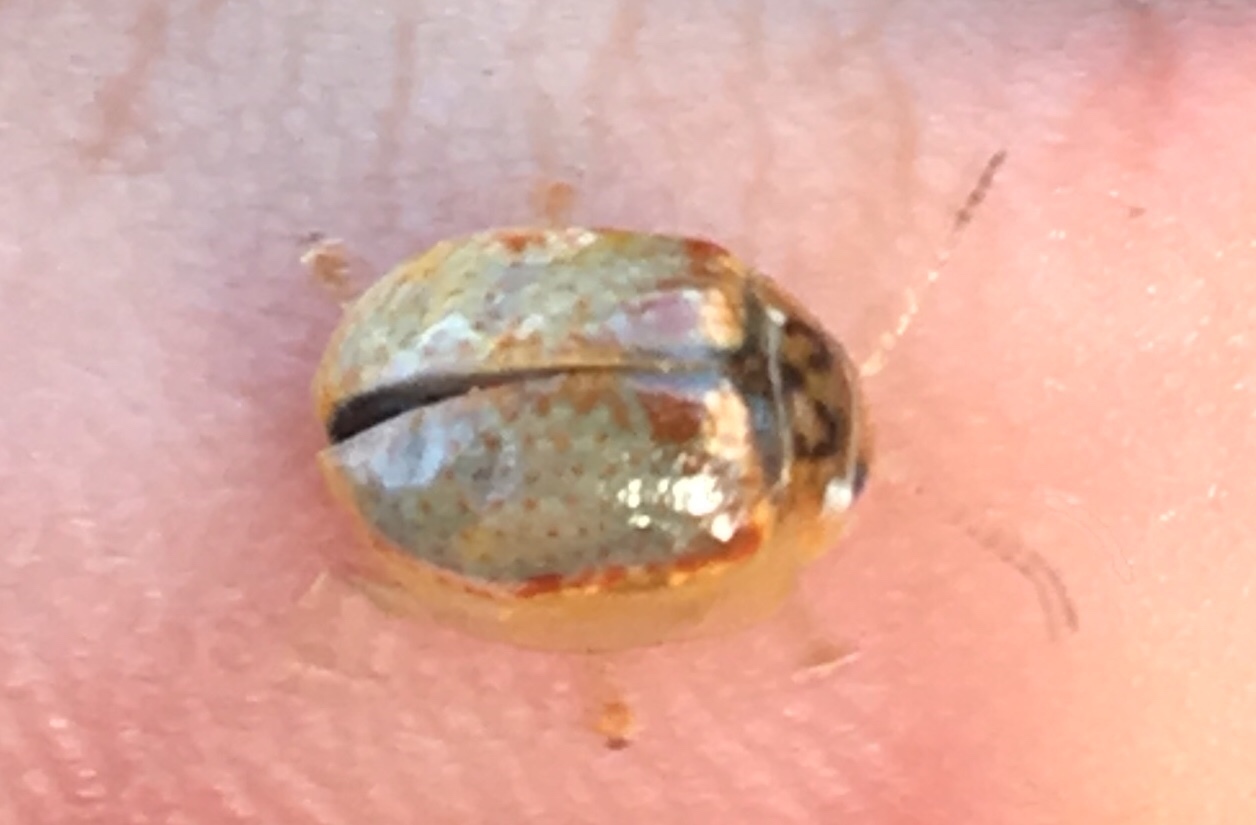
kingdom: Animalia
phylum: Arthropoda
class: Insecta
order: Coleoptera
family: Chrysomelidae
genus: Paropsisterna
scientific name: Paropsisterna m-fuscum
